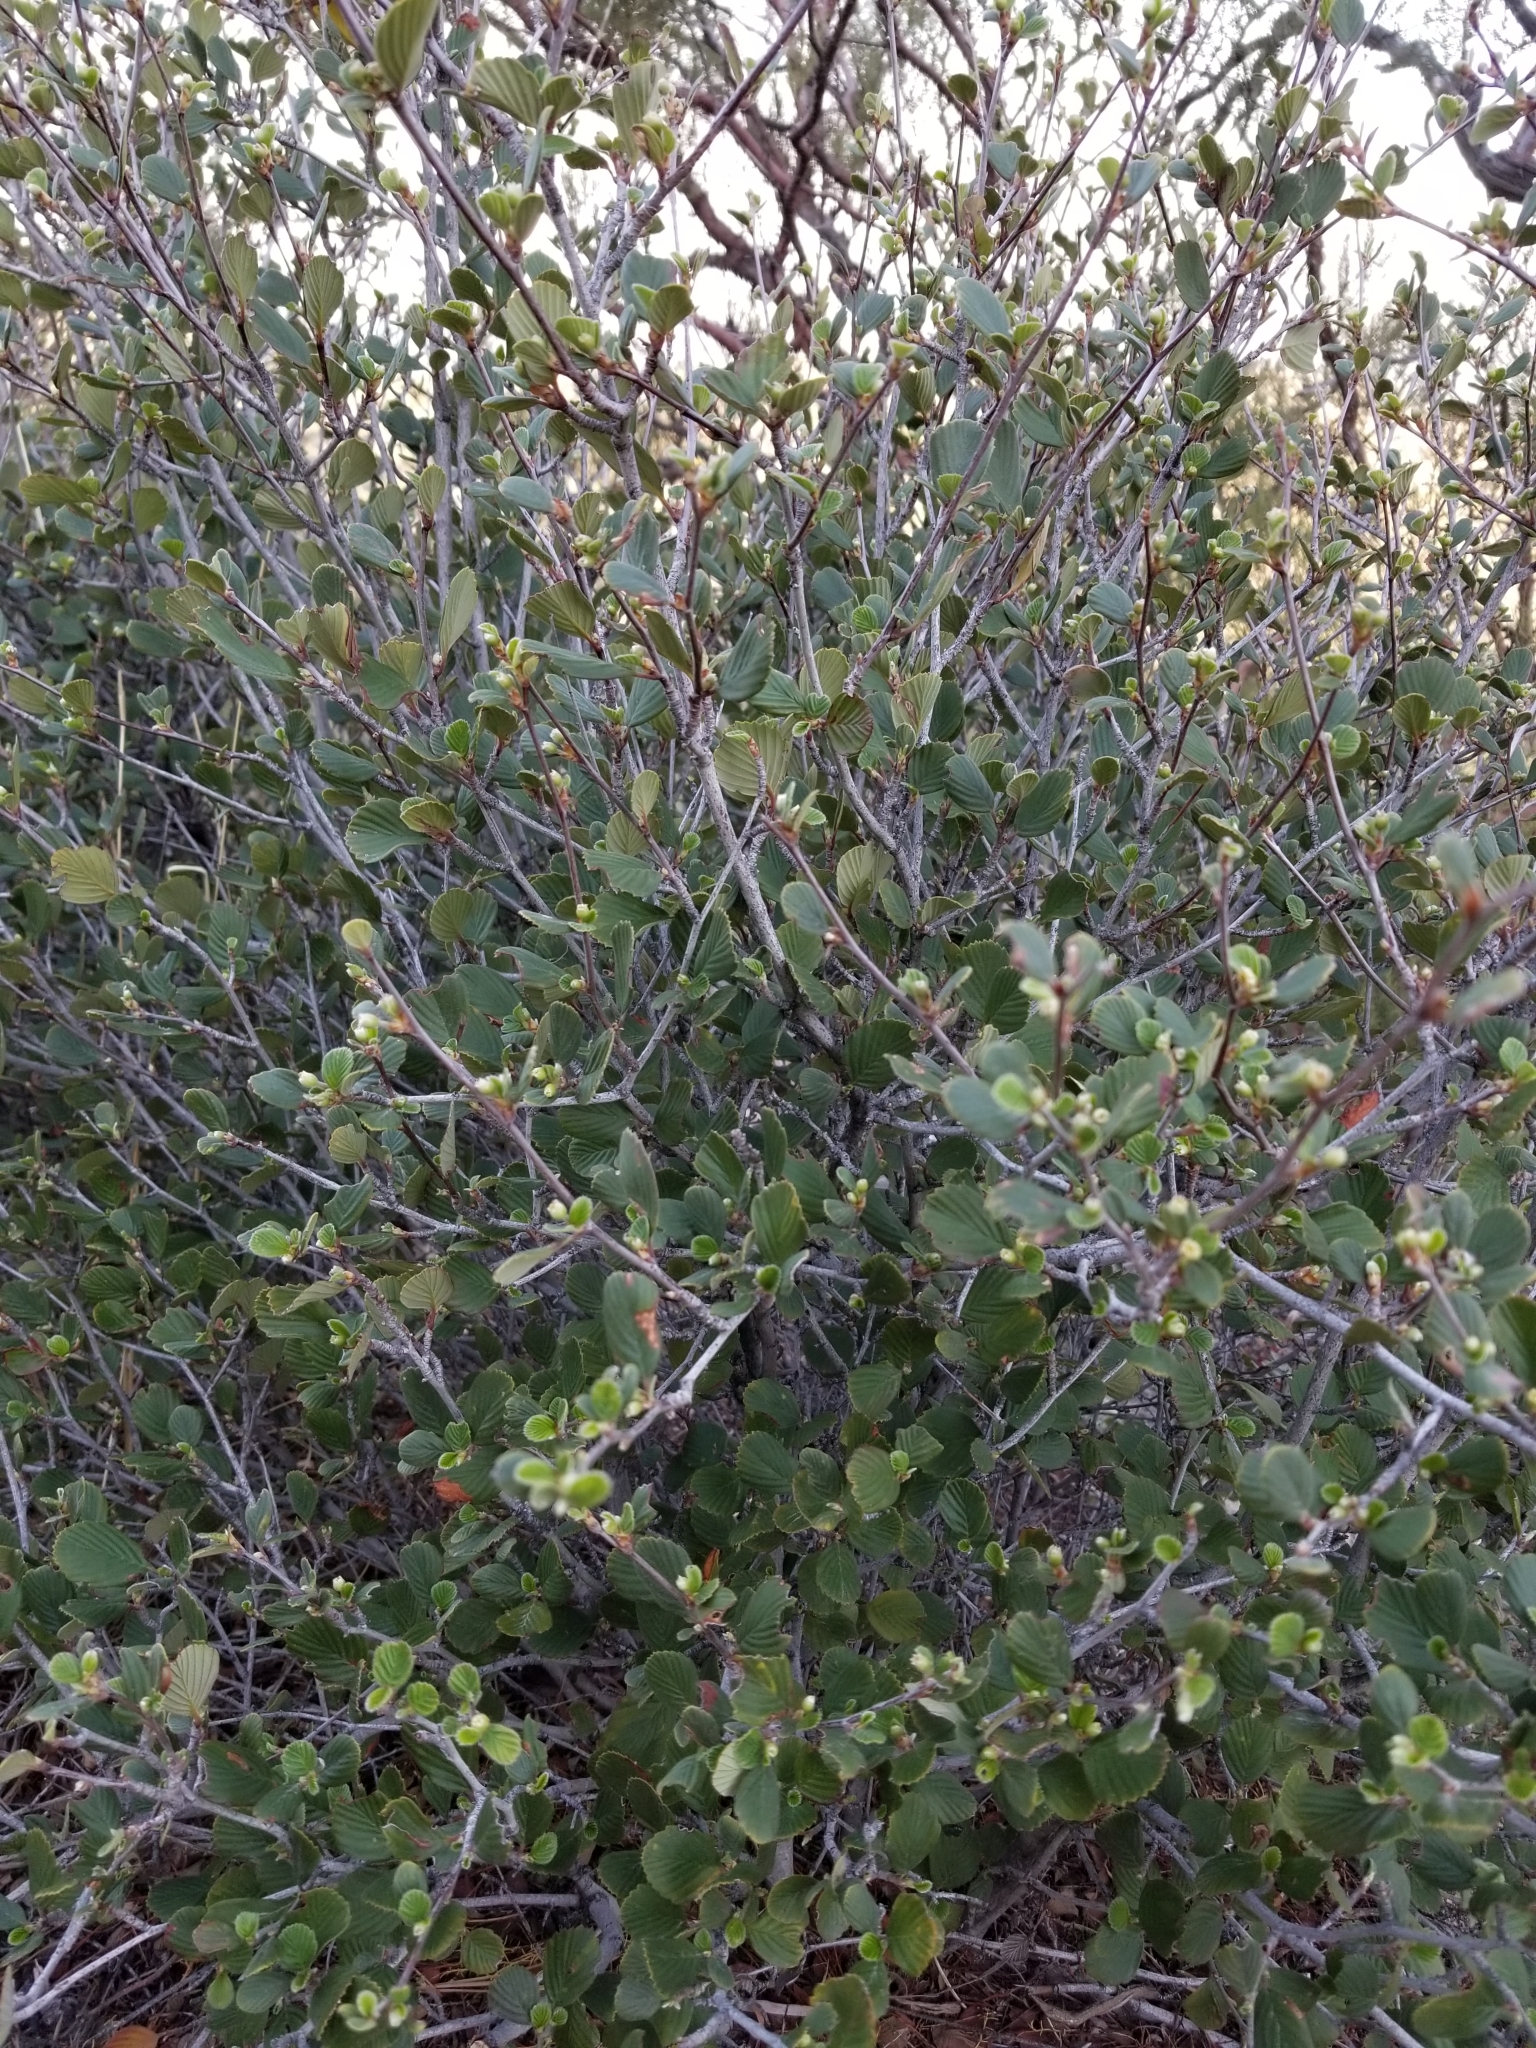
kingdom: Plantae
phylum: Tracheophyta
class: Magnoliopsida
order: Rosales
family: Rosaceae
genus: Cercocarpus
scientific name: Cercocarpus betuloides
